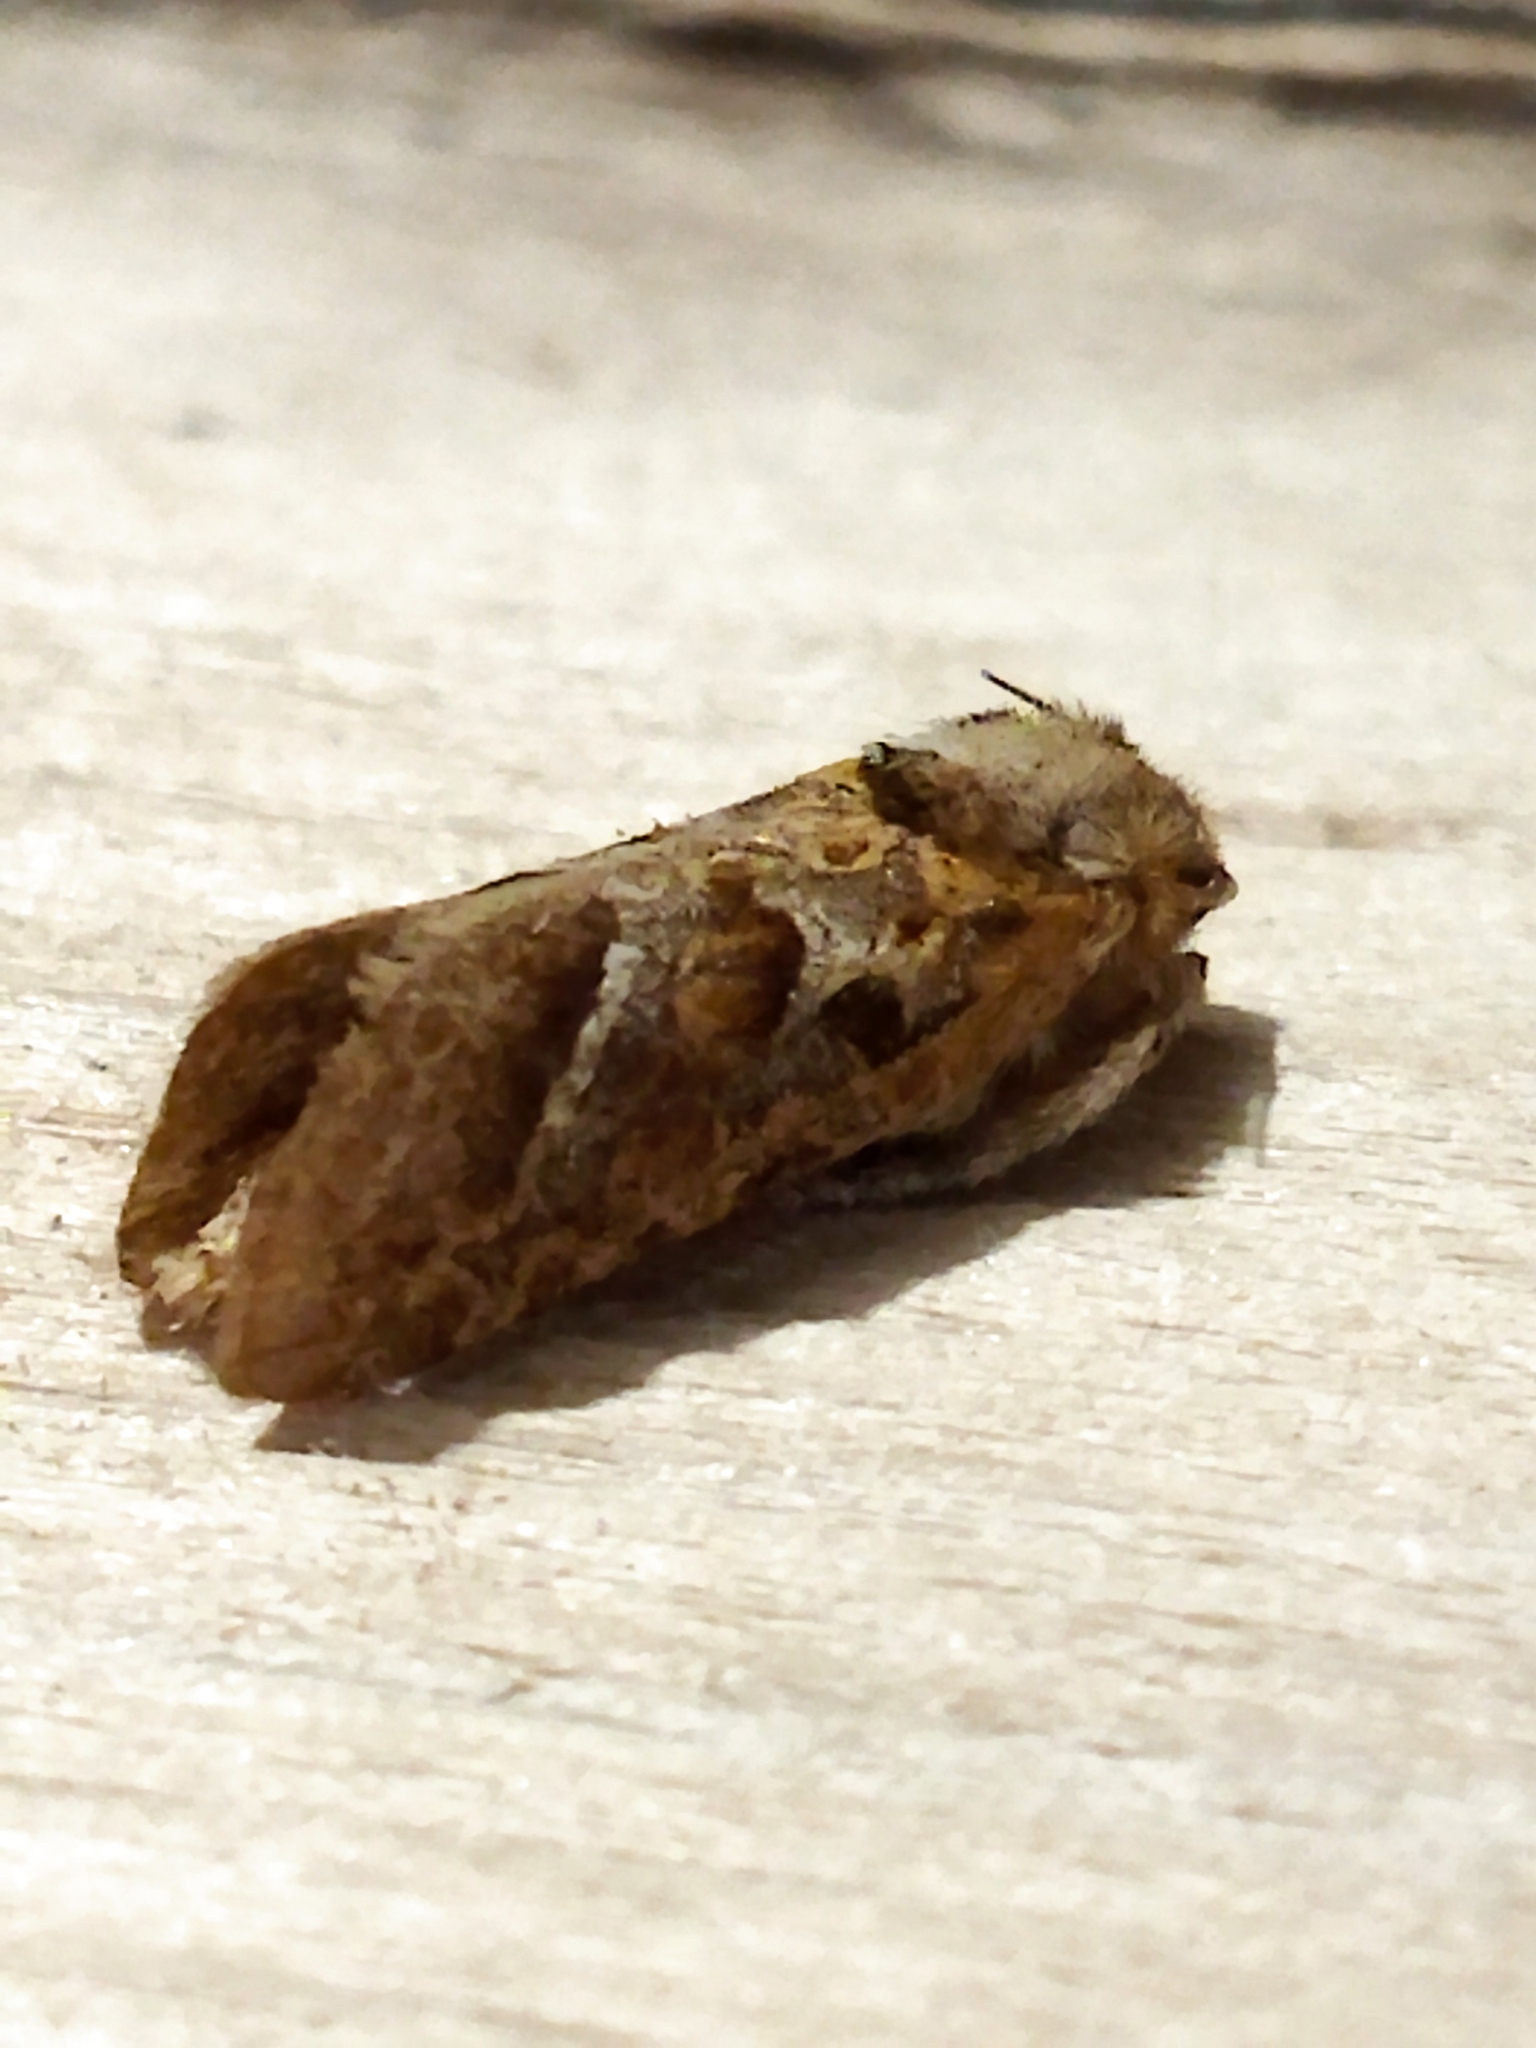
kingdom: Animalia
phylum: Arthropoda
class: Insecta
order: Lepidoptera
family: Hepialidae
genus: Triodia
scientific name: Triodia amasinus
